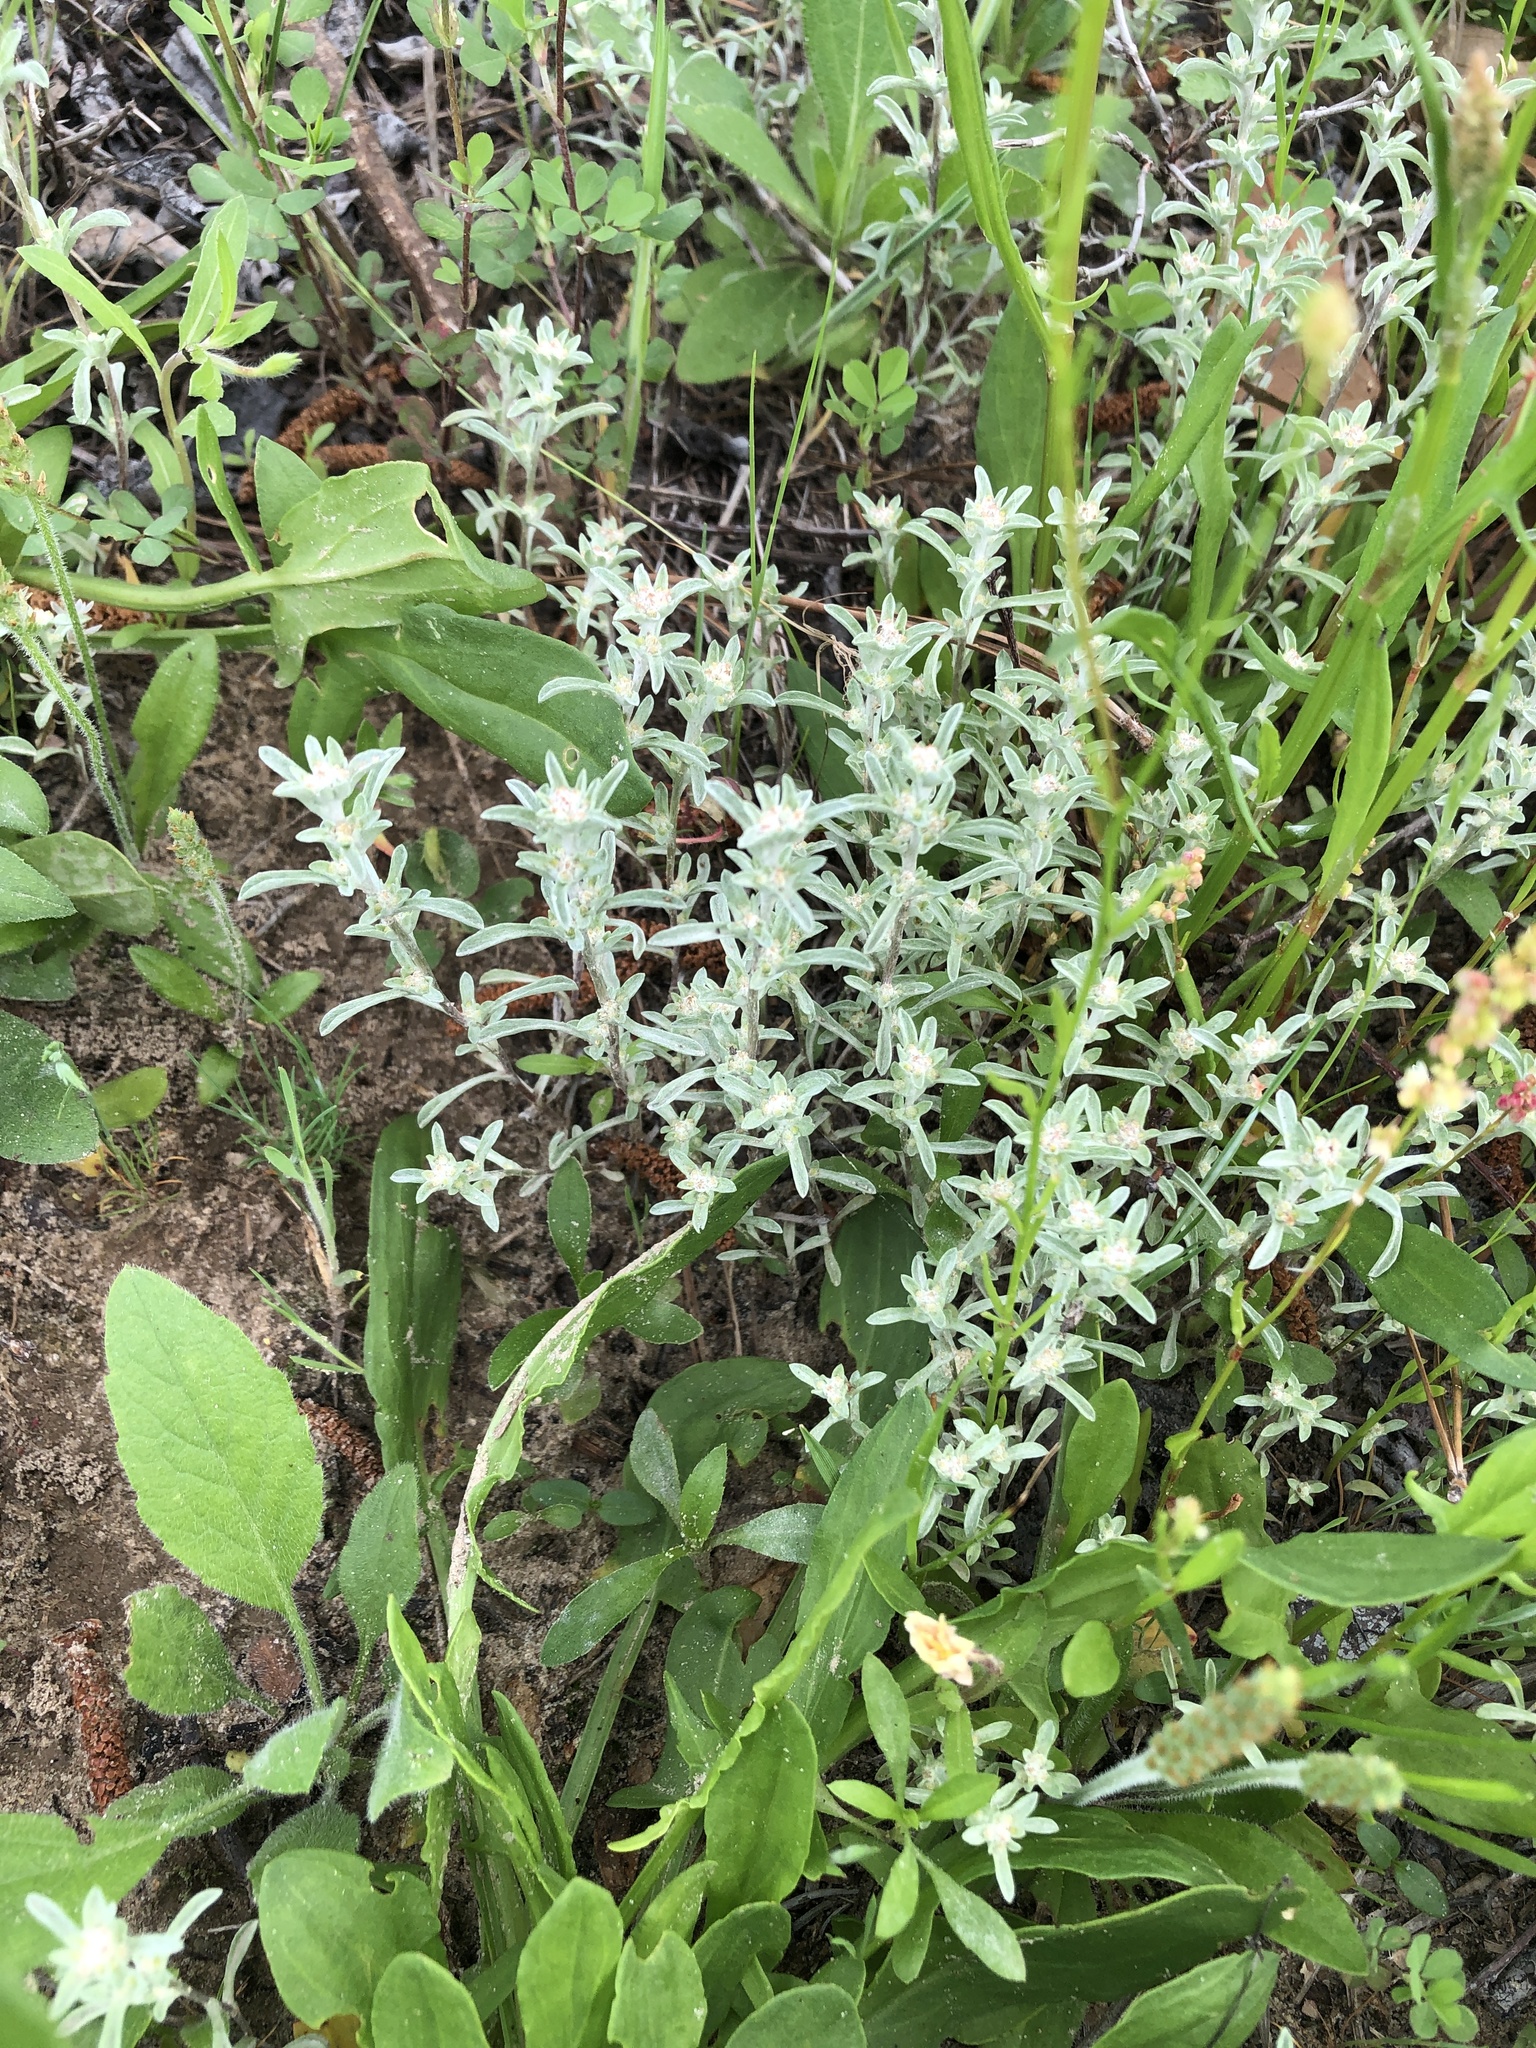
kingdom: Plantae
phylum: Tracheophyta
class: Magnoliopsida
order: Asterales
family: Asteraceae
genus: Diaperia
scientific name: Diaperia candida
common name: Silver rabbit-tobacco
